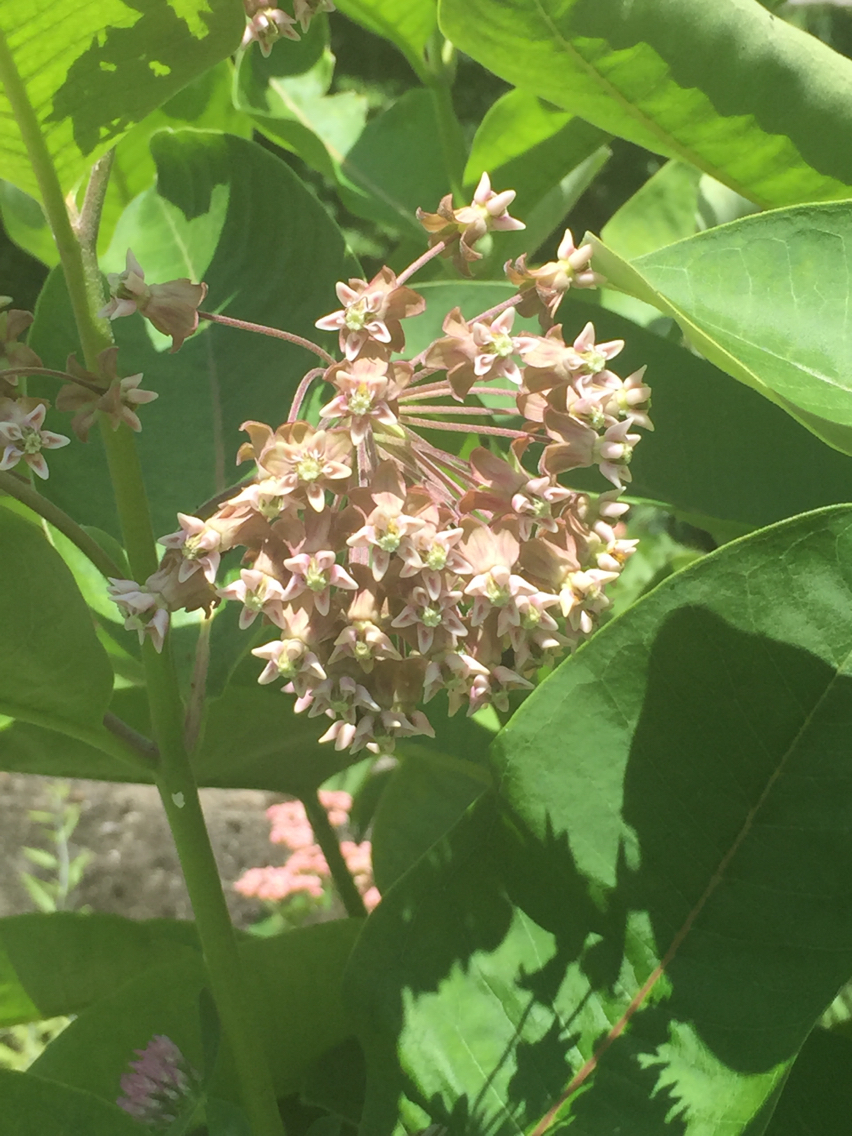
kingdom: Plantae
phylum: Tracheophyta
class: Magnoliopsida
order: Gentianales
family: Apocynaceae
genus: Asclepias
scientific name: Asclepias syriaca
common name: Common milkweed
